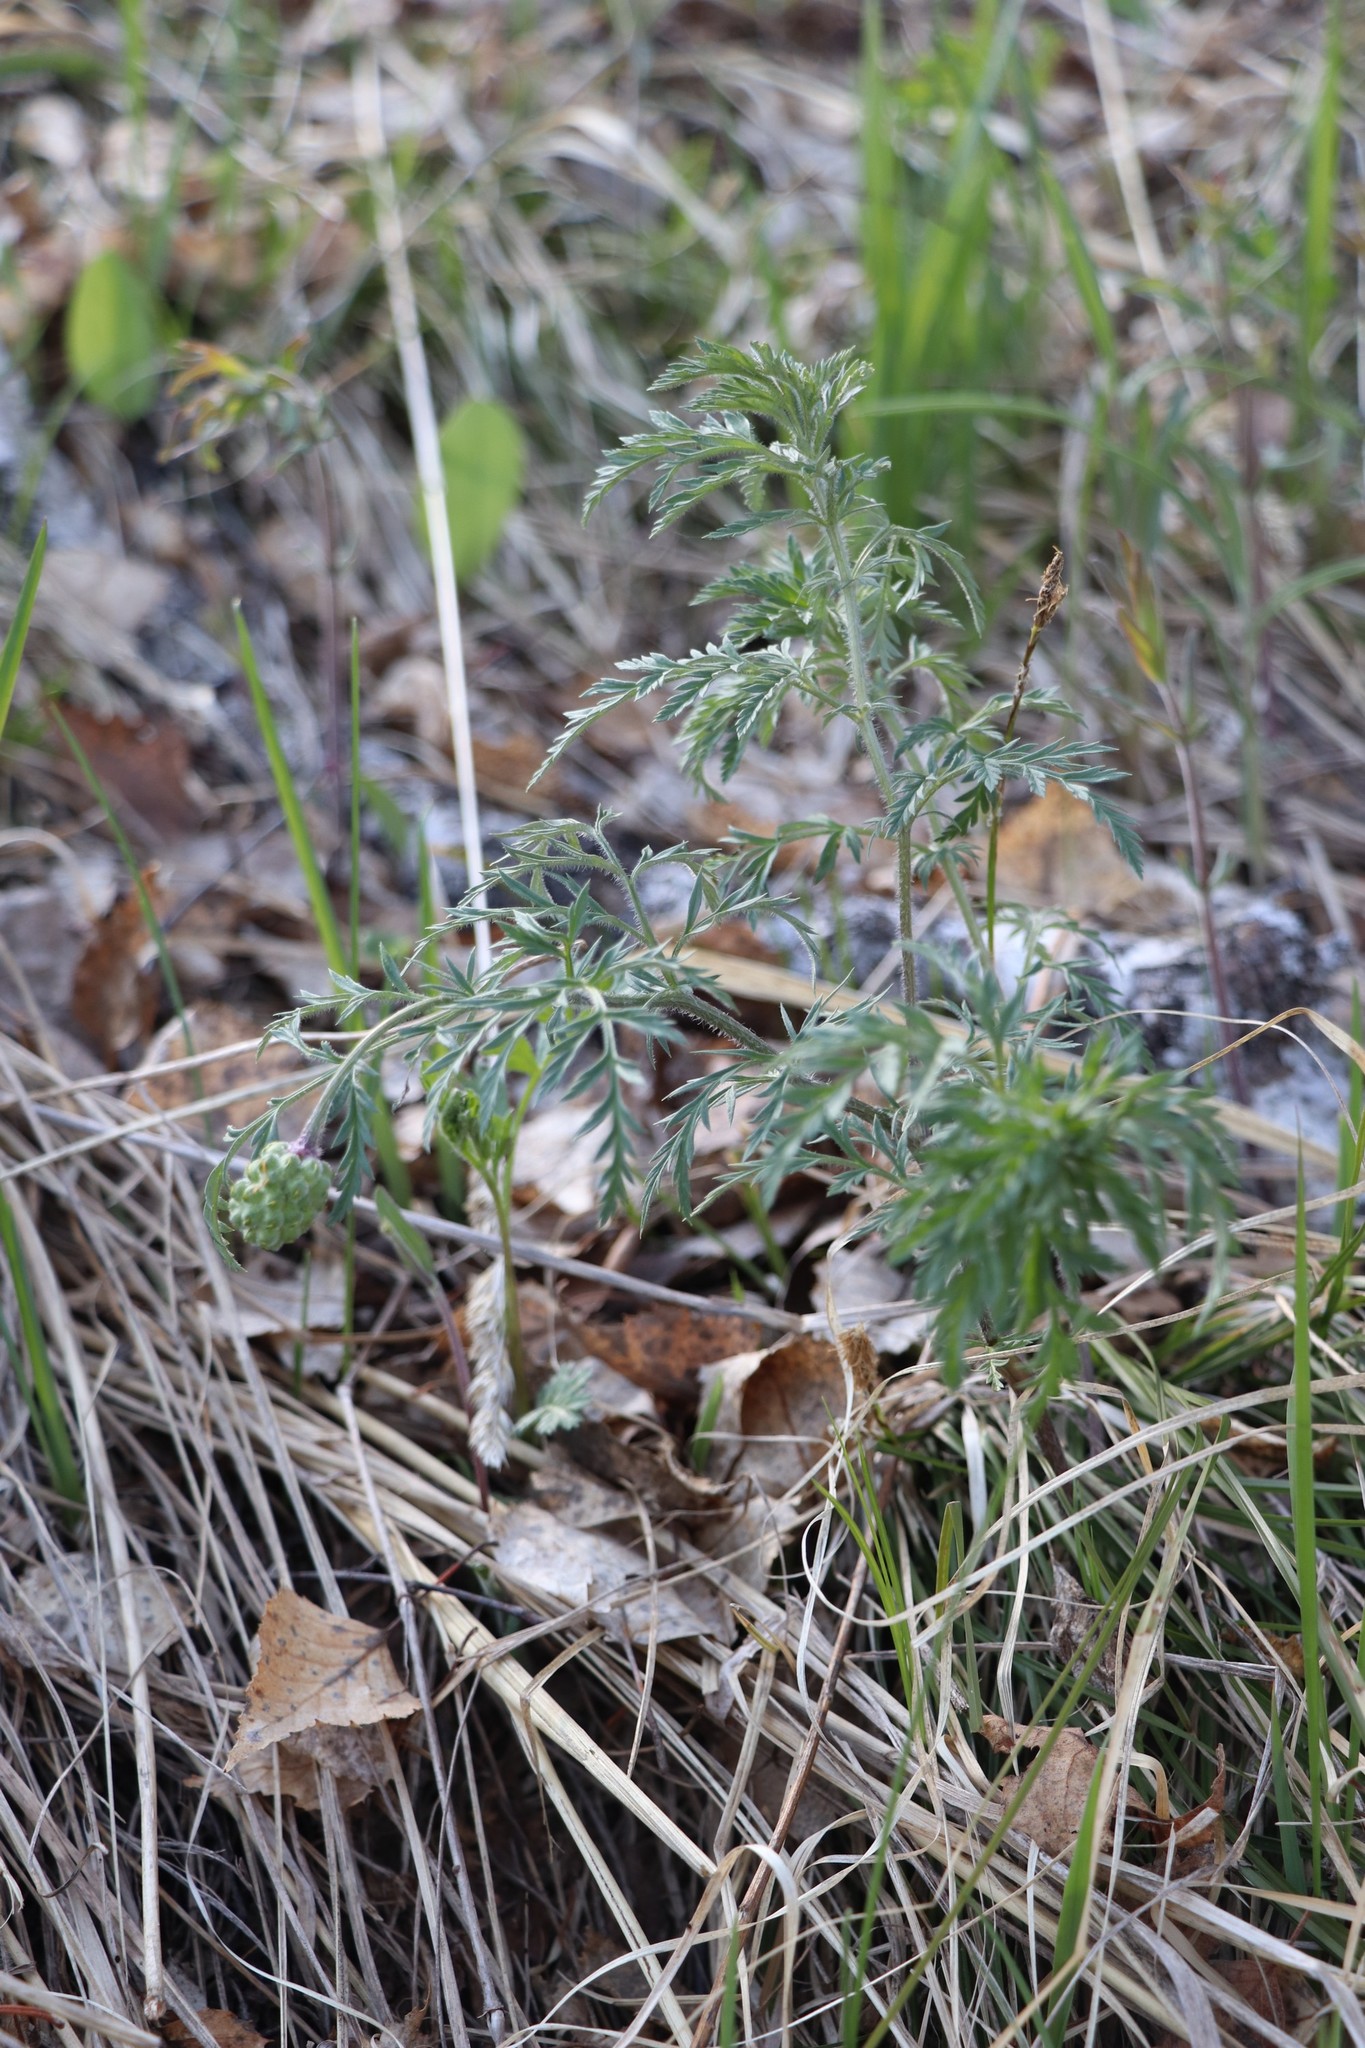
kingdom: Plantae
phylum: Tracheophyta
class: Magnoliopsida
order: Ranunculales
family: Ranunculaceae
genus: Adonis
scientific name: Adonis villosa
